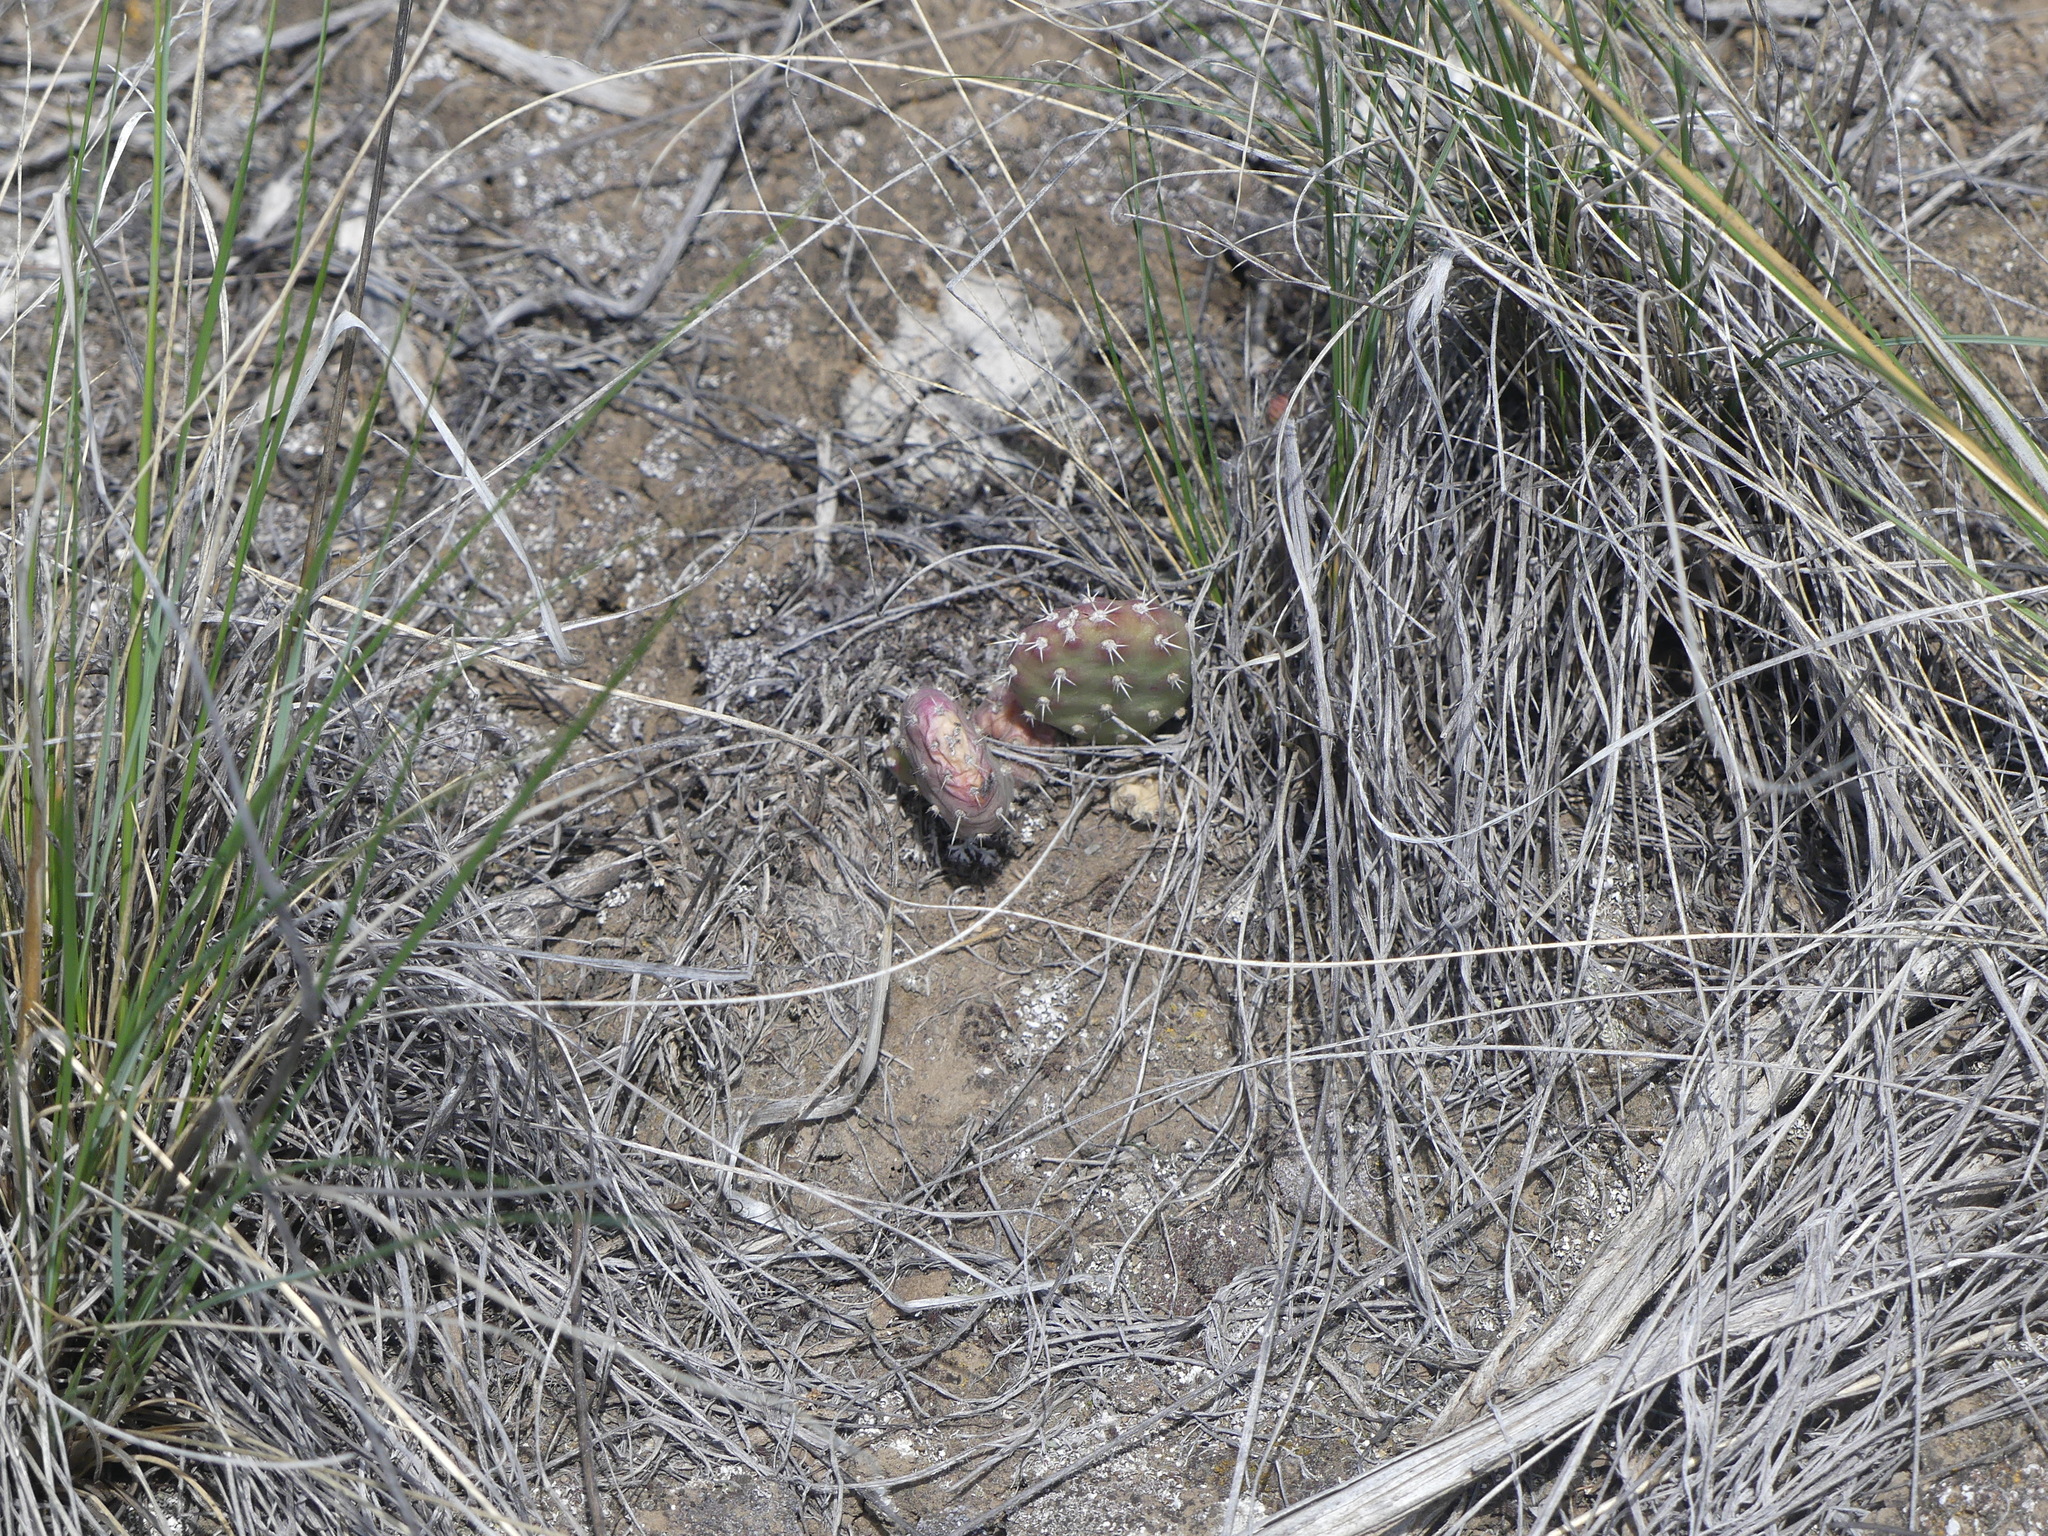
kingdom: Plantae
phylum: Tracheophyta
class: Magnoliopsida
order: Caryophyllales
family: Cactaceae
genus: Opuntia
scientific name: Opuntia fragilis
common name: Brittle cactus
